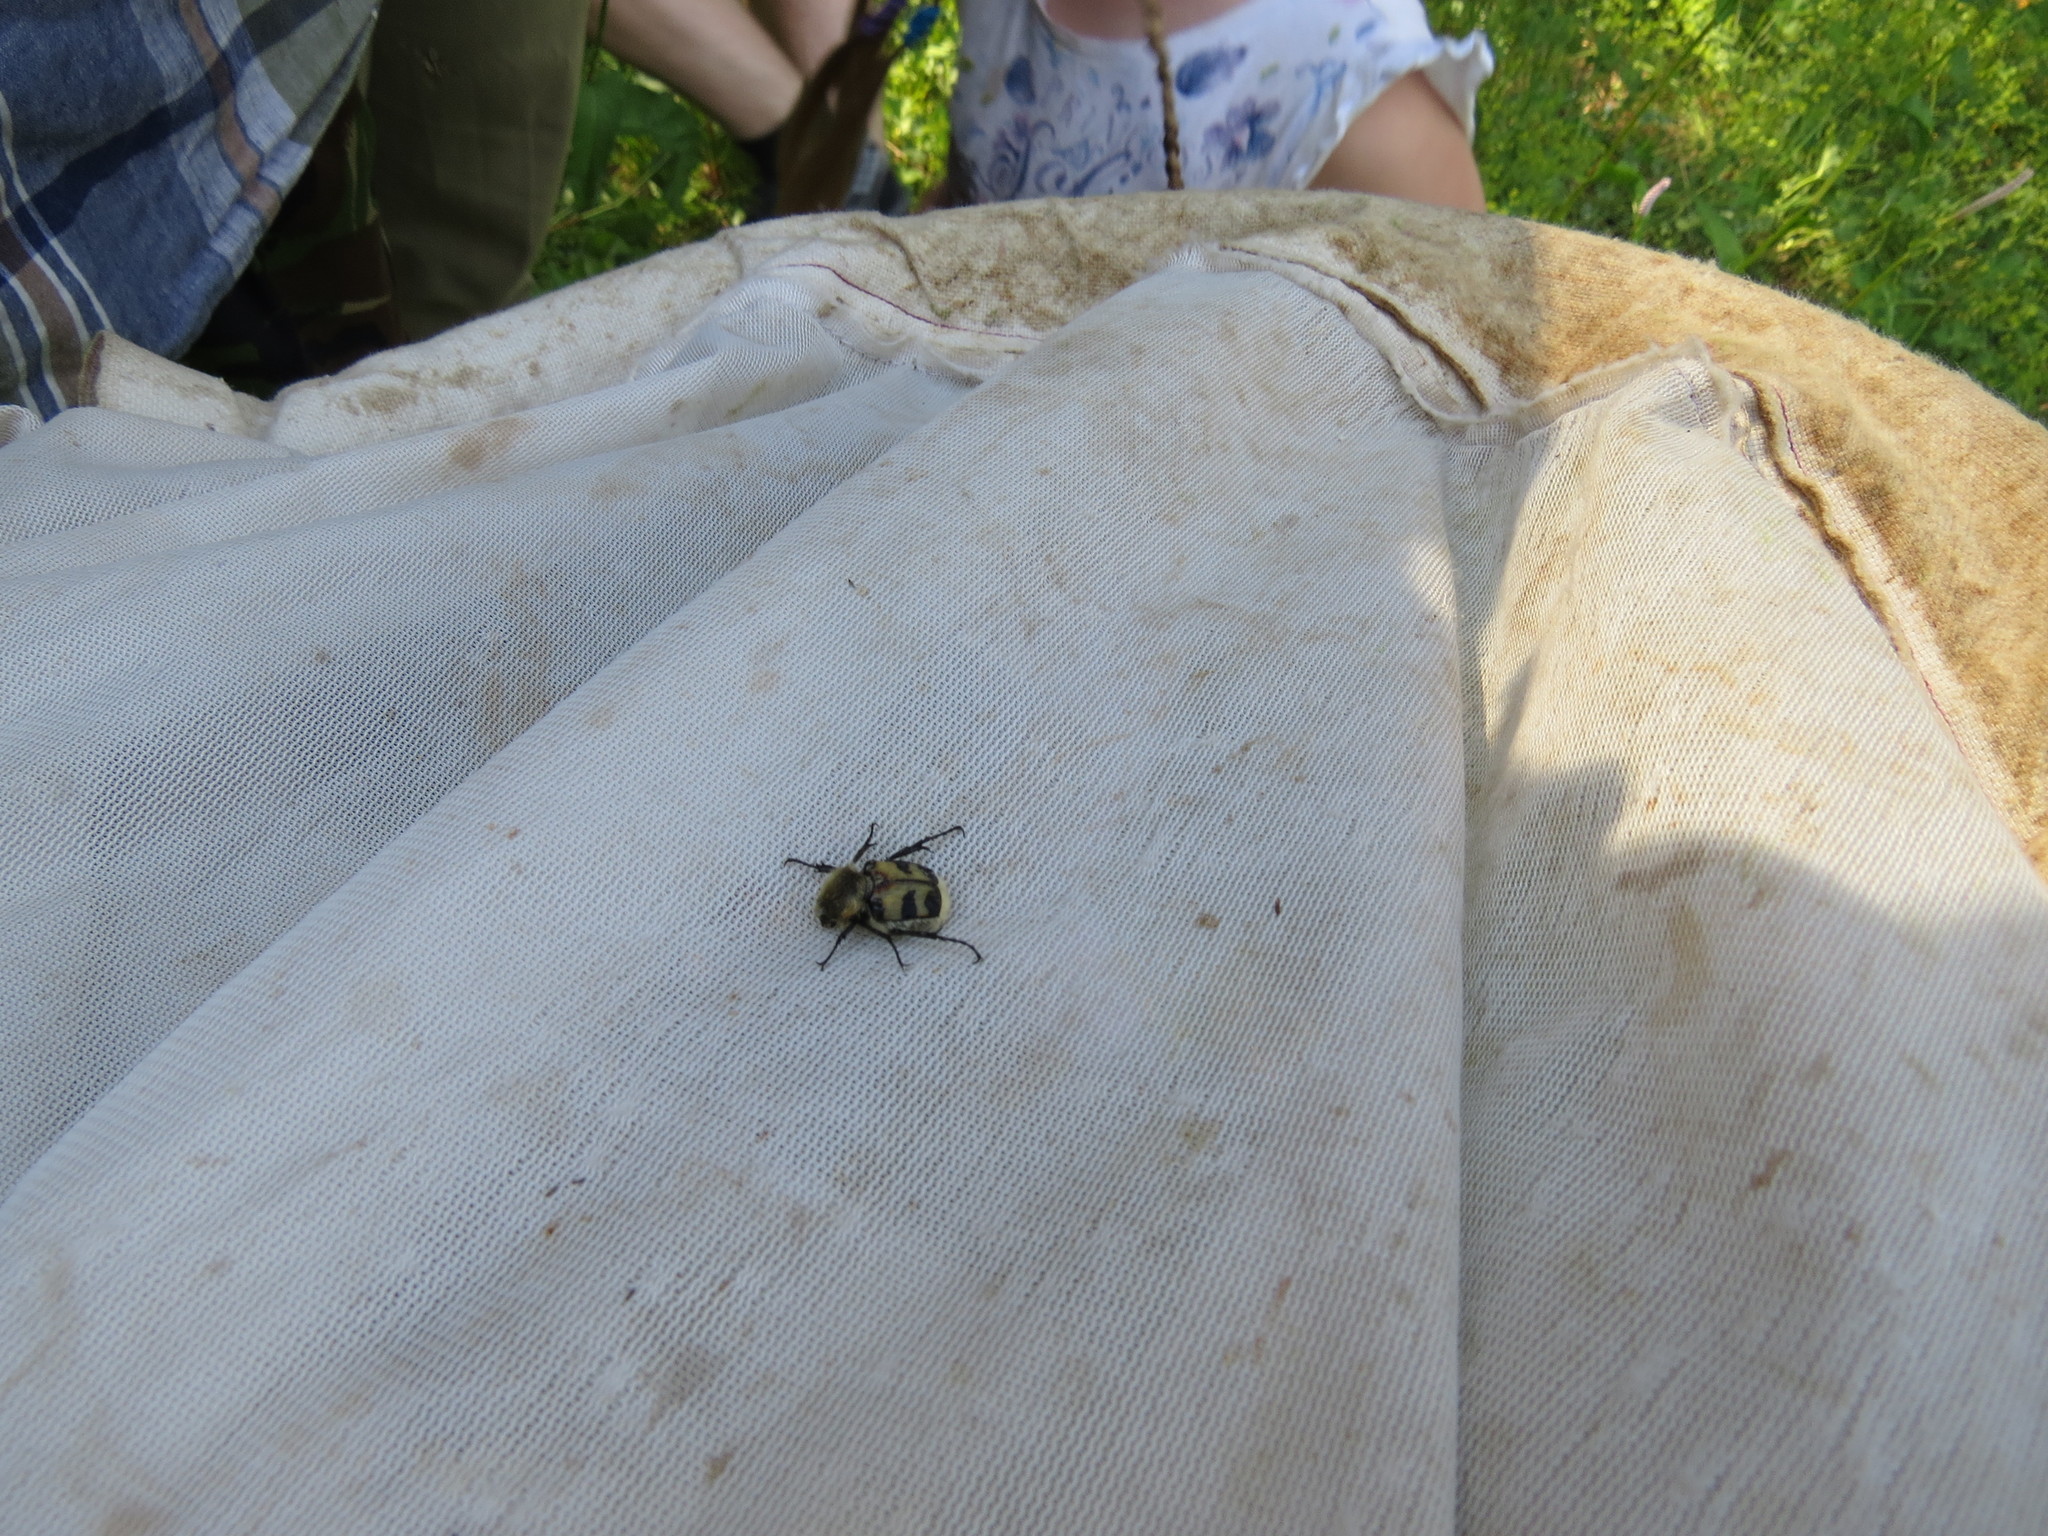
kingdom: Animalia
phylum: Arthropoda
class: Insecta
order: Coleoptera
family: Scarabaeidae
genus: Trichius
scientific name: Trichius fasciatus
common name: Bee beetle
